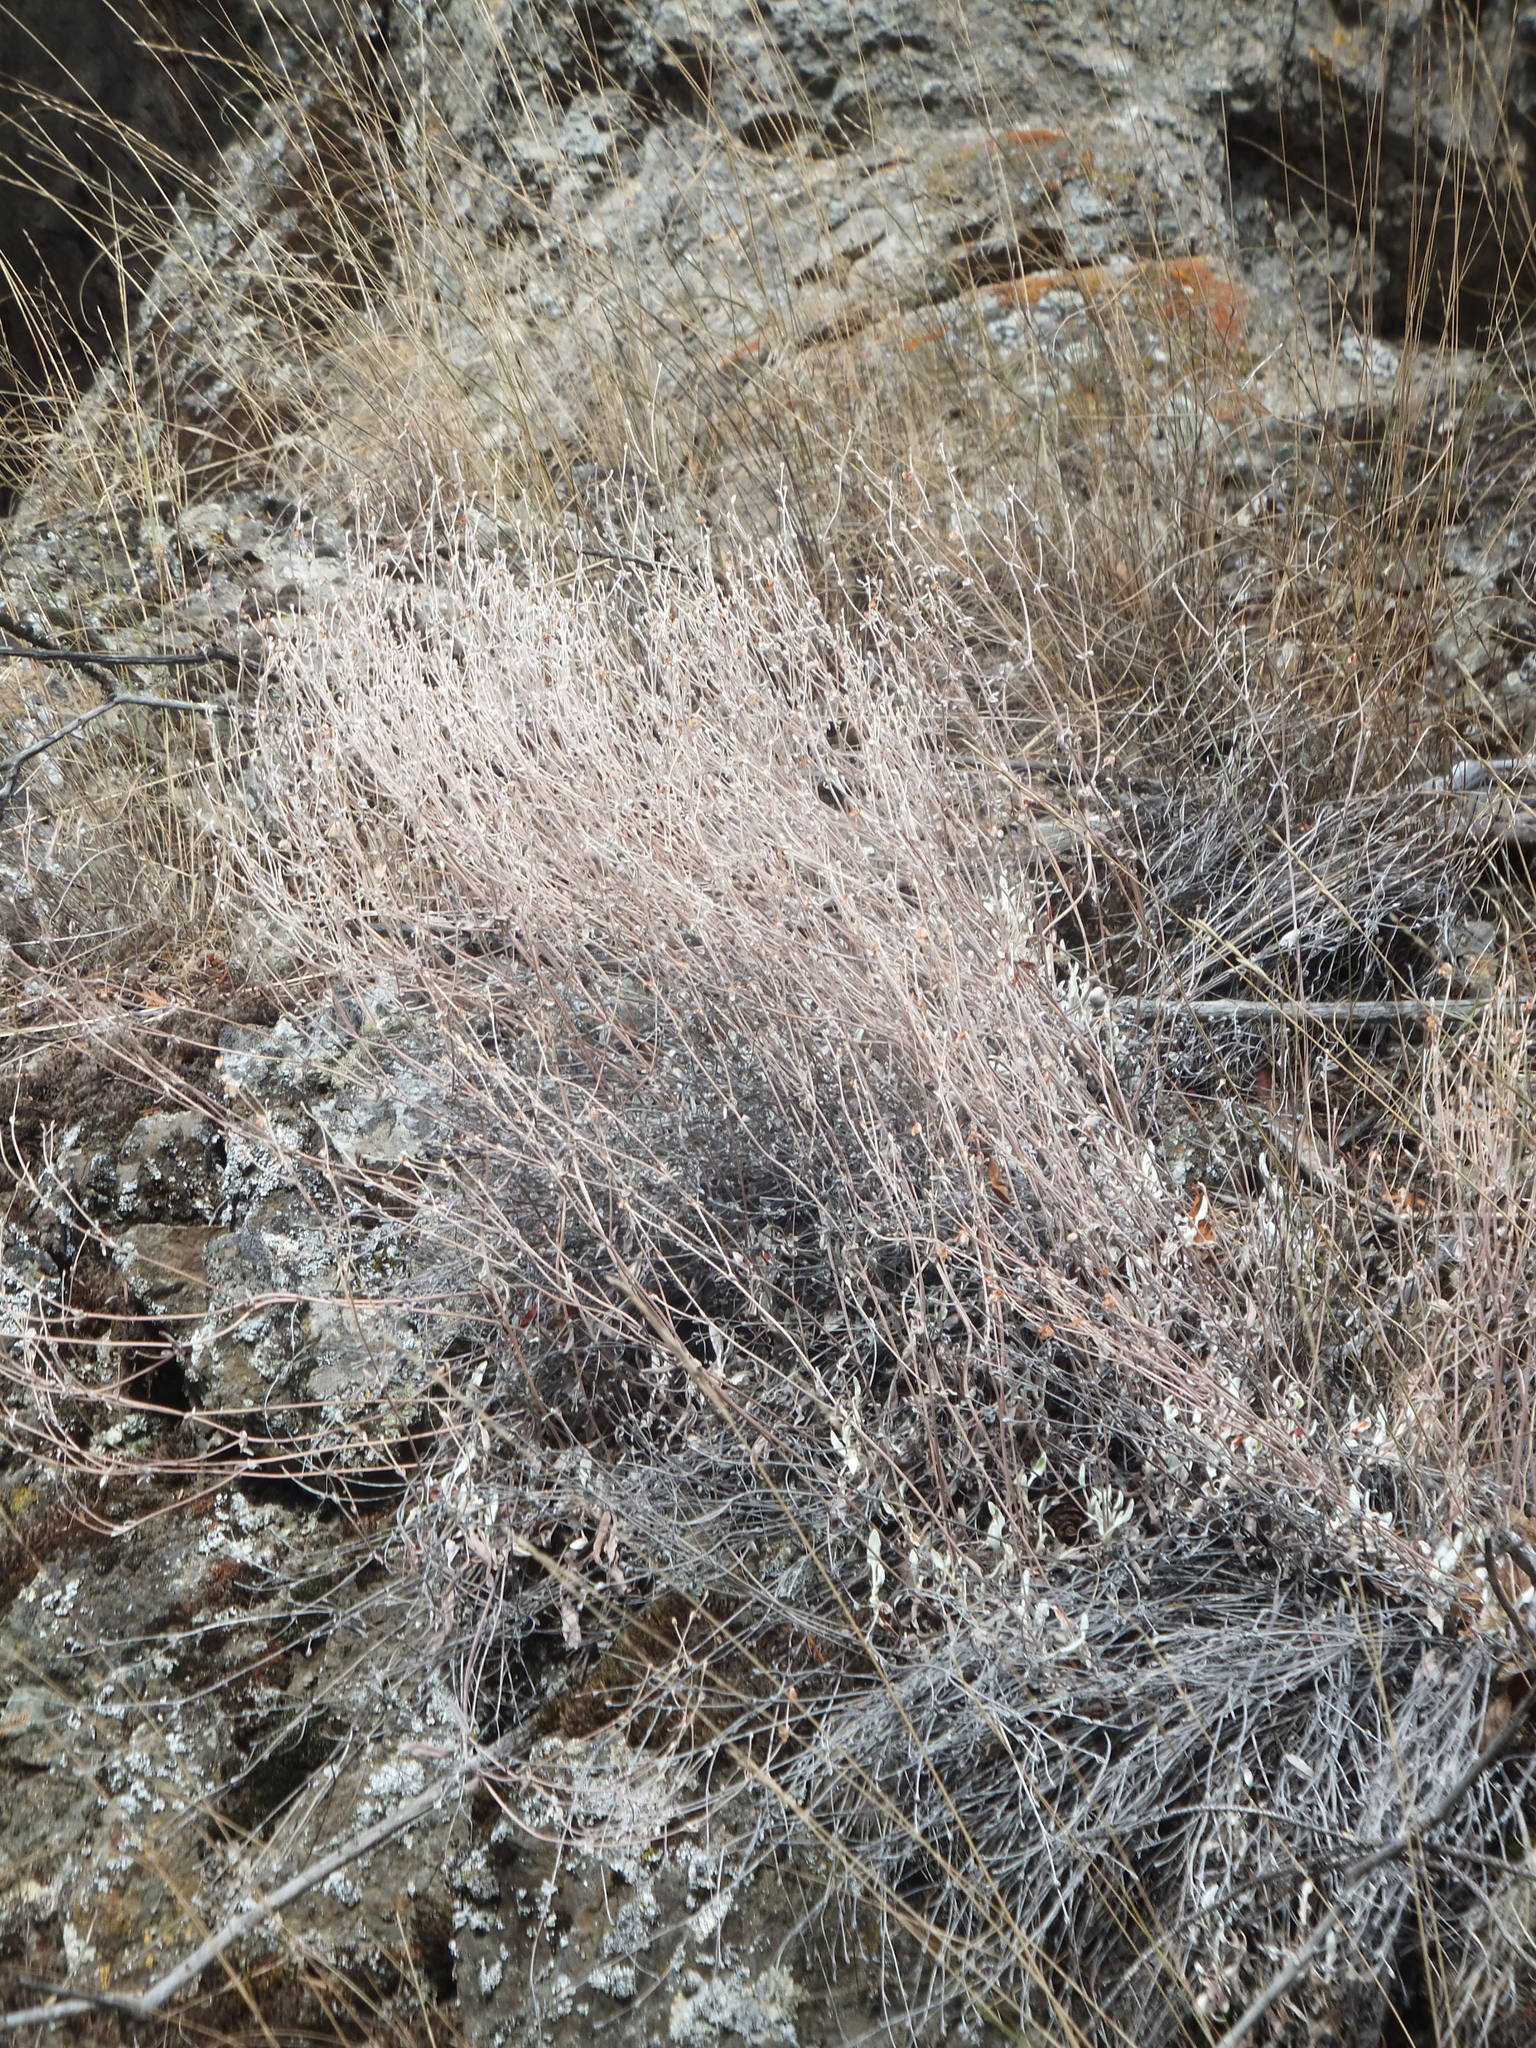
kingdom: Plantae
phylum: Tracheophyta
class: Magnoliopsida
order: Caryophyllales
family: Polygonaceae
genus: Eriogonum
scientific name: Eriogonum niveum
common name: Snow wild buckwheat
